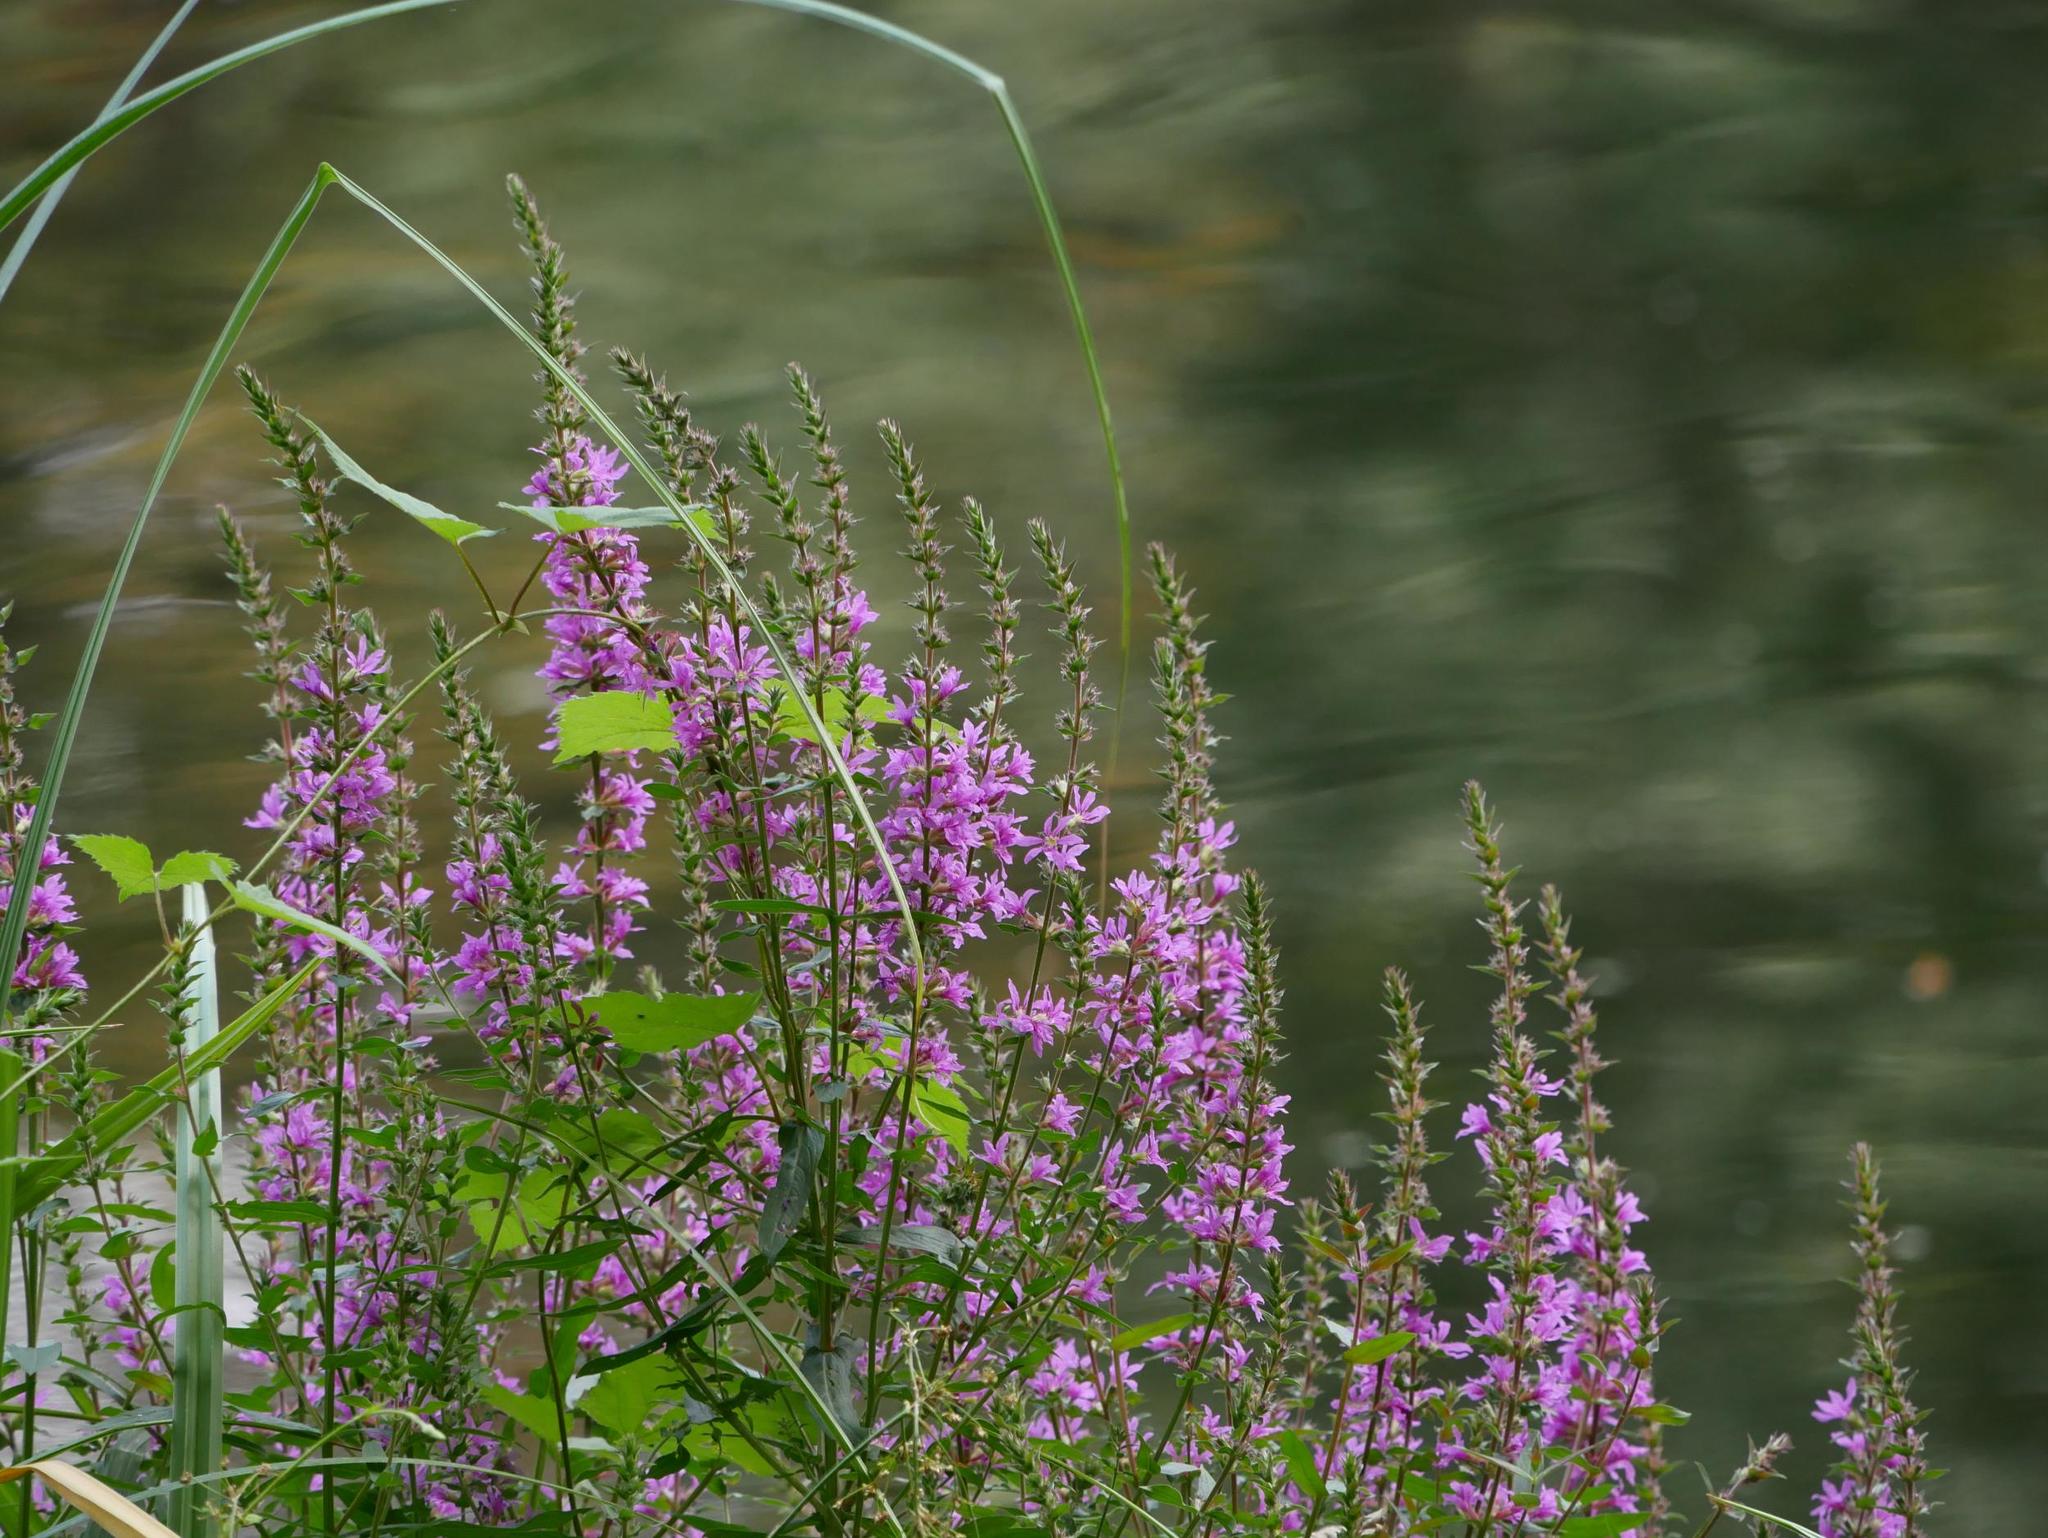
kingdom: Plantae
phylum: Tracheophyta
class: Magnoliopsida
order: Myrtales
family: Lythraceae
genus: Lythrum
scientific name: Lythrum salicaria
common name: Purple loosestrife
